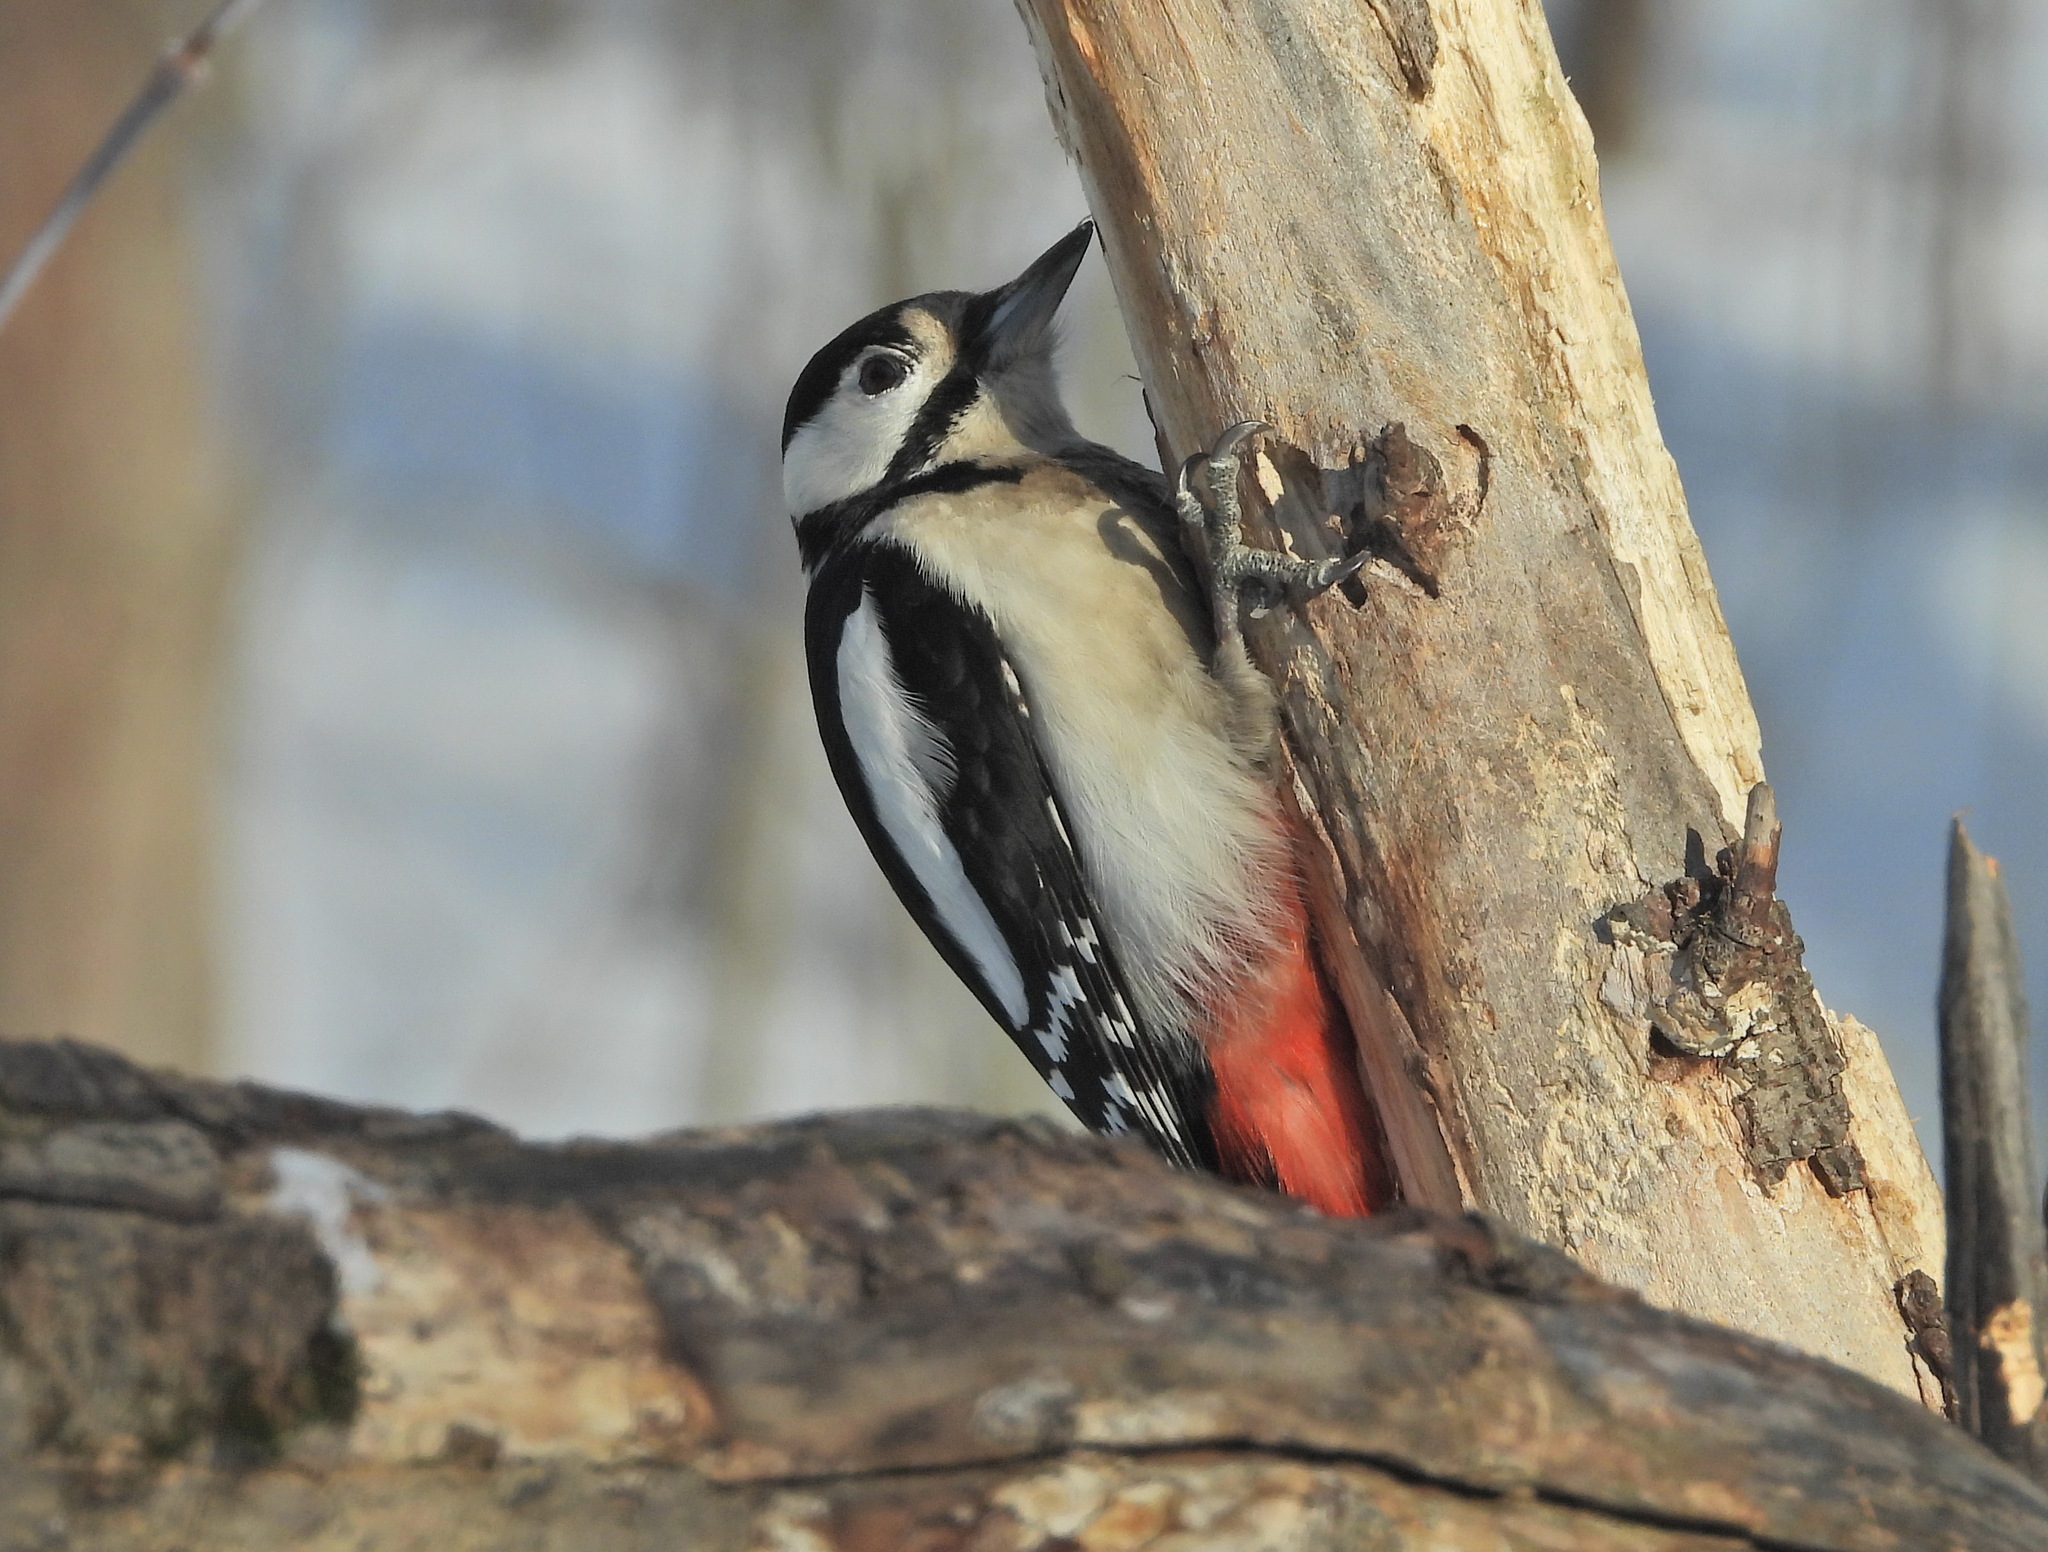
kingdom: Animalia
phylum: Chordata
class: Aves
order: Piciformes
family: Picidae
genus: Dendrocopos
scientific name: Dendrocopos major
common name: Great spotted woodpecker
